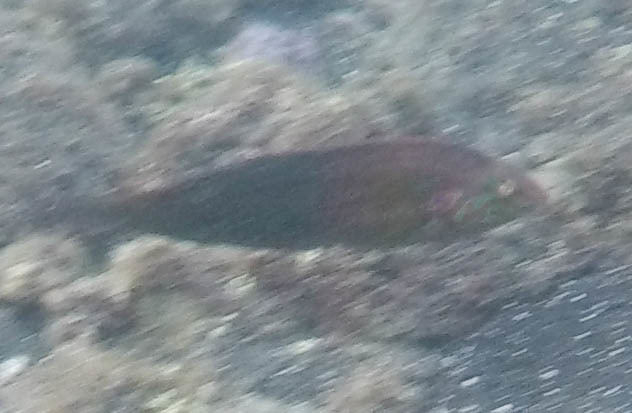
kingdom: Animalia
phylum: Chordata
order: Perciformes
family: Labridae
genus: Coris
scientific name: Coris venusta
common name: Elegant coris
